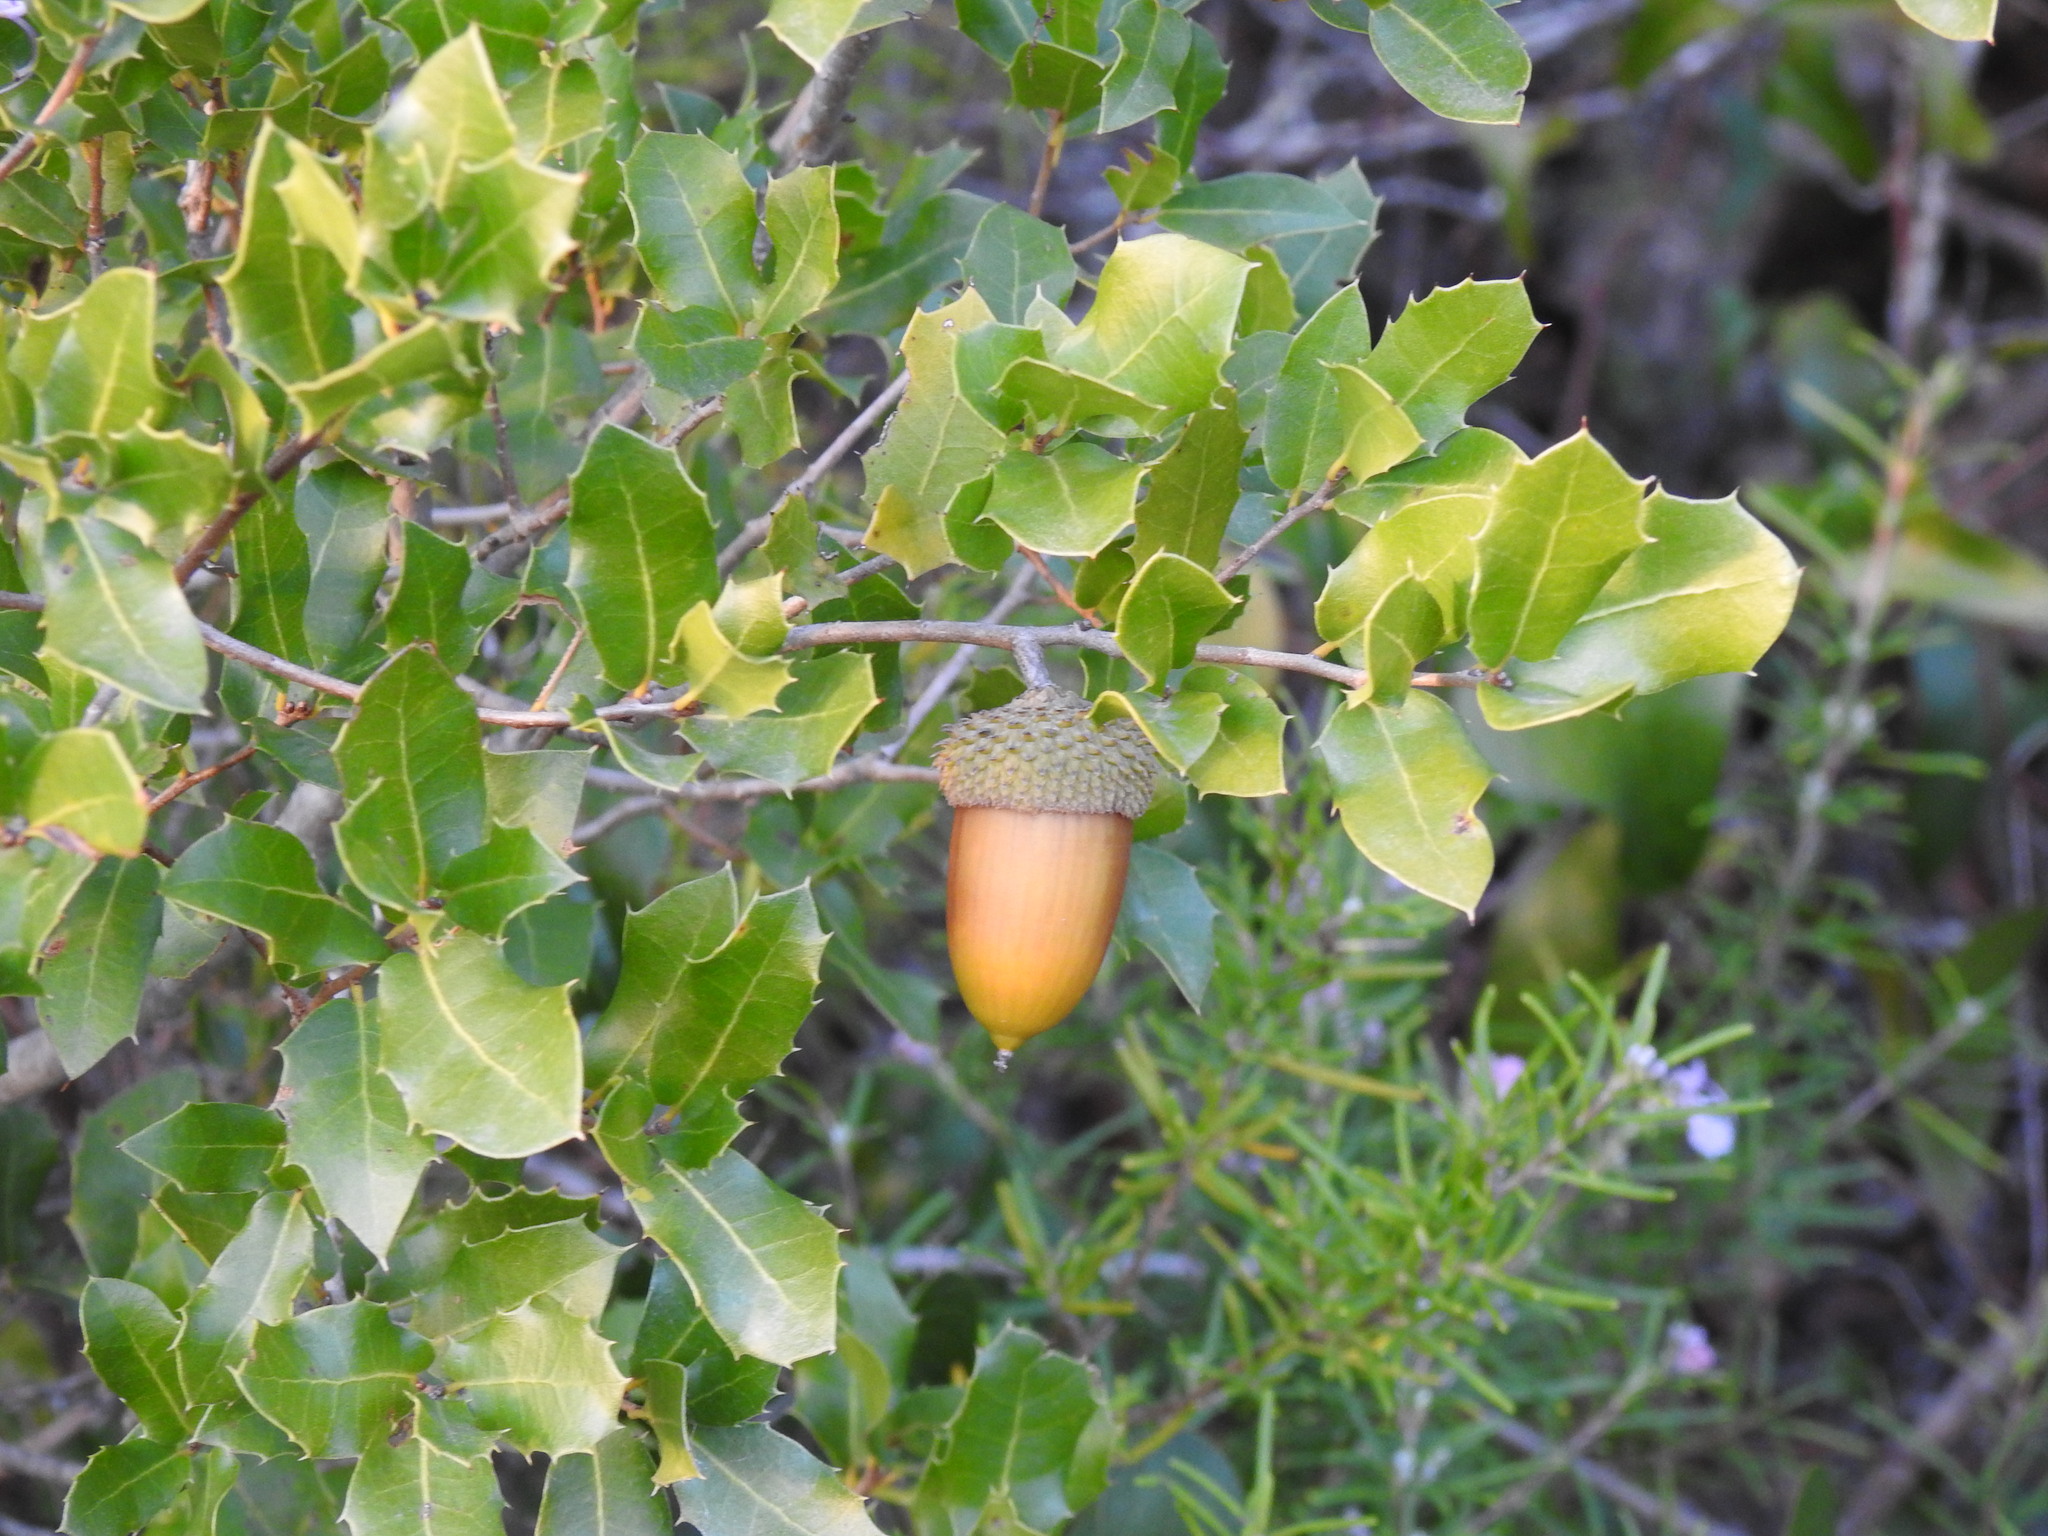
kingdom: Plantae
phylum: Tracheophyta
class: Magnoliopsida
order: Fagales
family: Fagaceae
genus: Quercus
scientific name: Quercus coccifera
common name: Kermes oak
